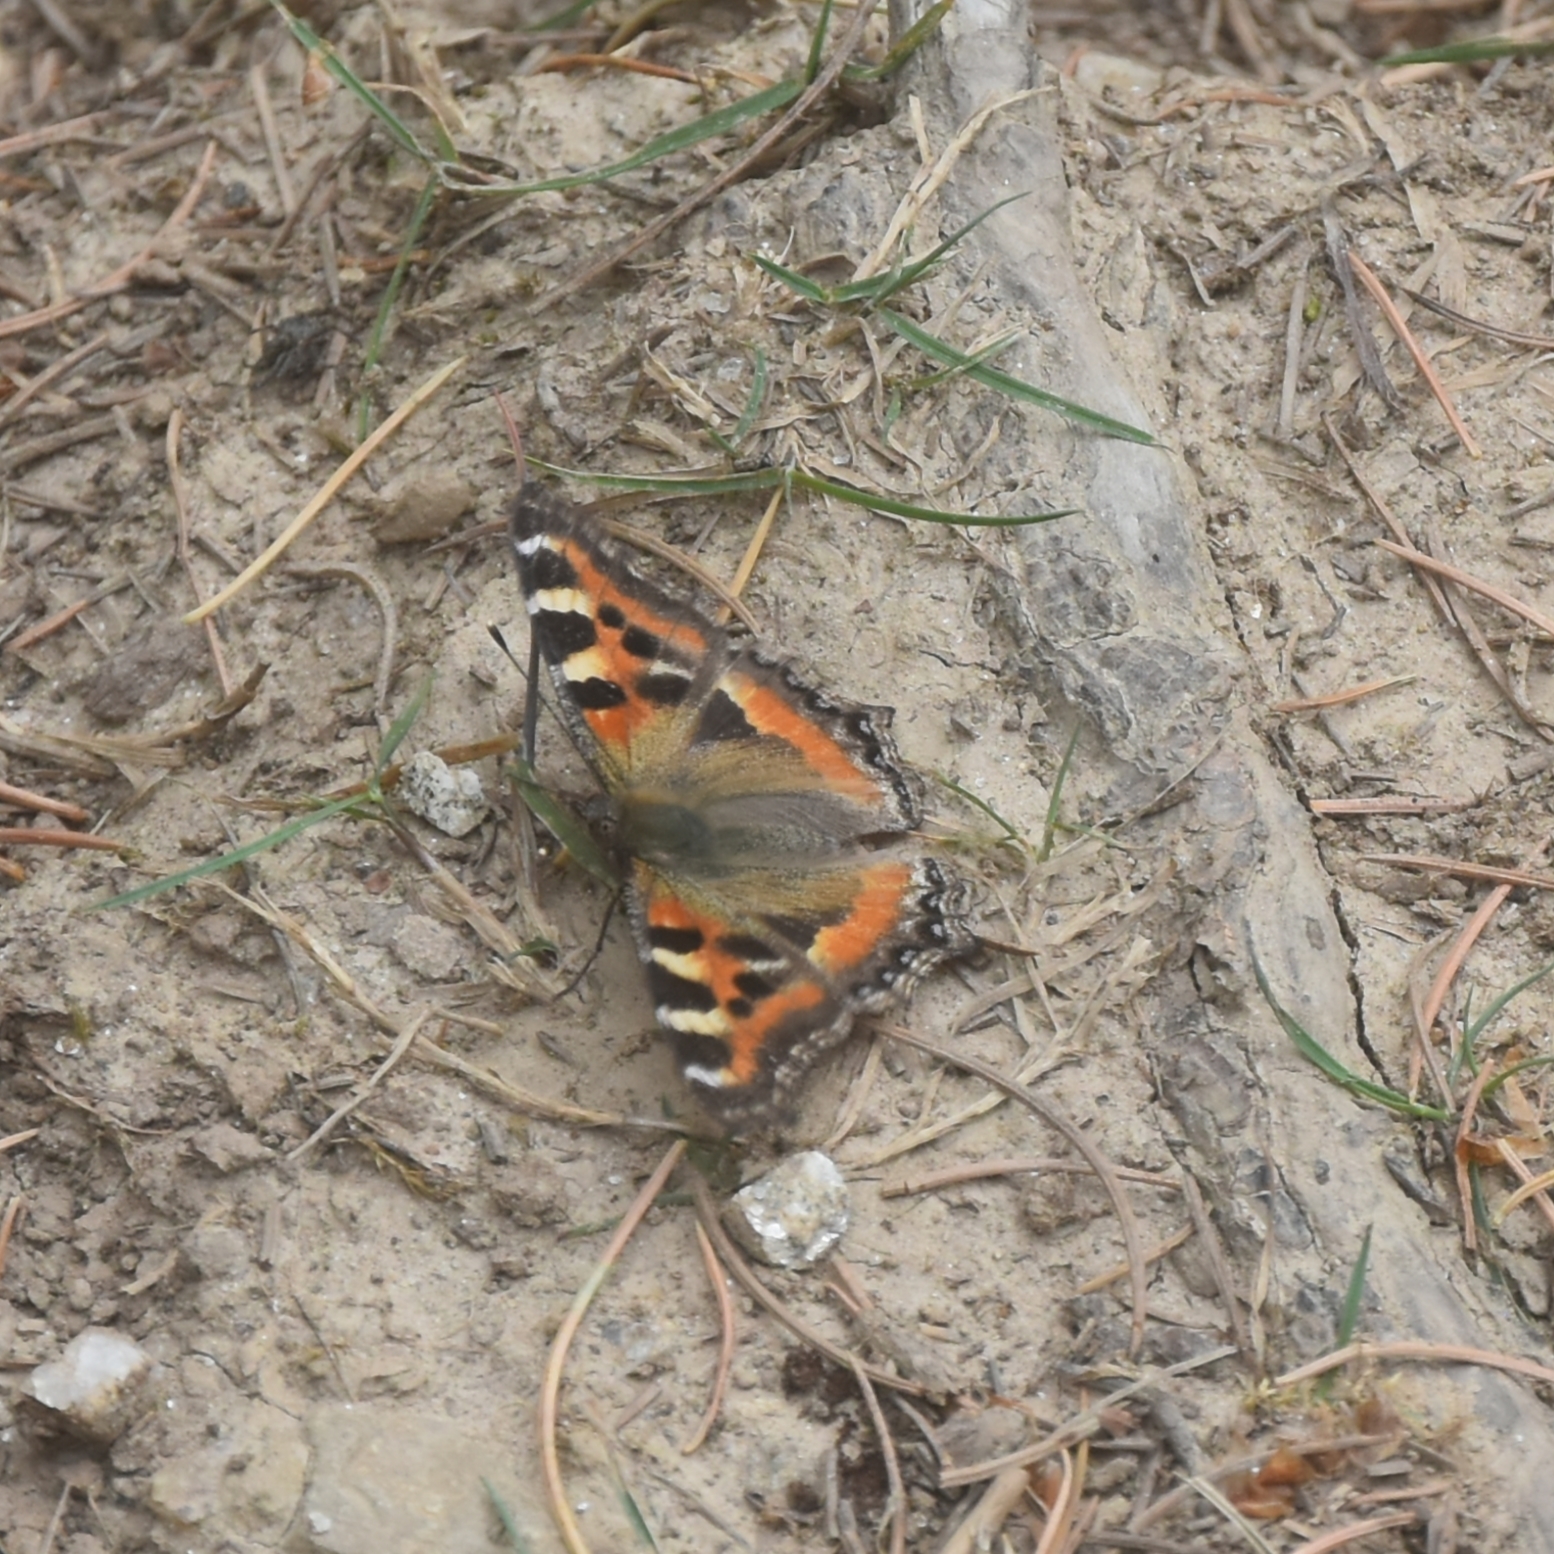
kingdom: Animalia
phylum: Arthropoda
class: Insecta
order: Lepidoptera
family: Nymphalidae
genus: Aglais
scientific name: Aglais caschmirensis
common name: Indian tortoiseshell
